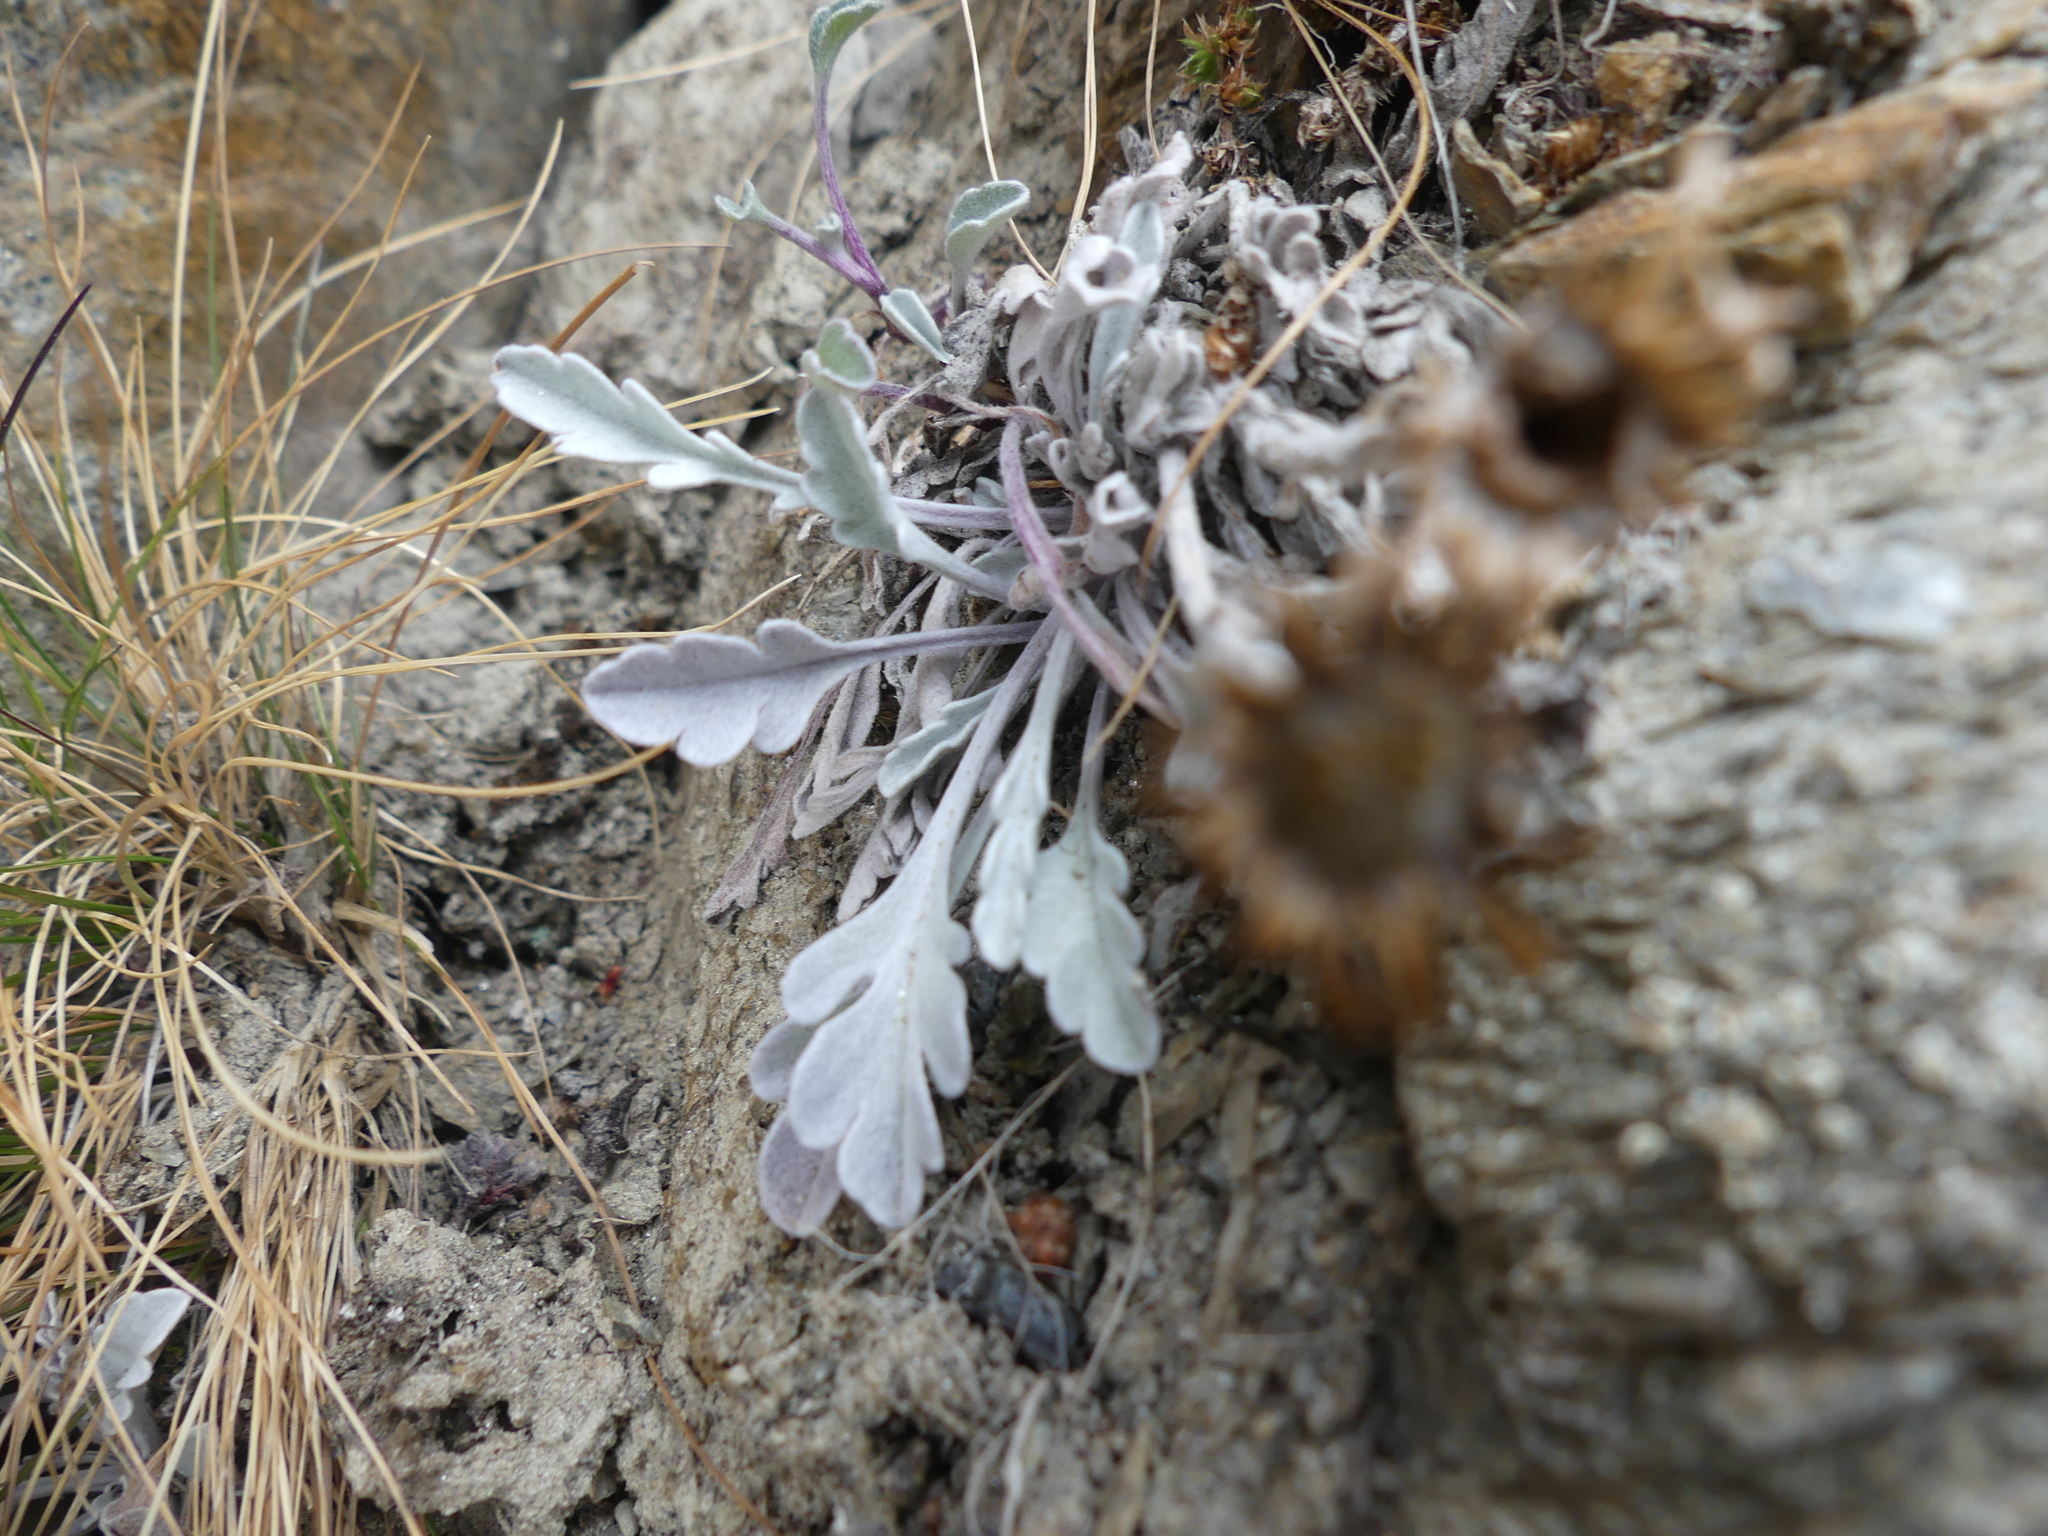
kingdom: Plantae
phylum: Tracheophyta
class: Magnoliopsida
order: Asterales
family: Asteraceae
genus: Jacobaea
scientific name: Jacobaea uniflora
